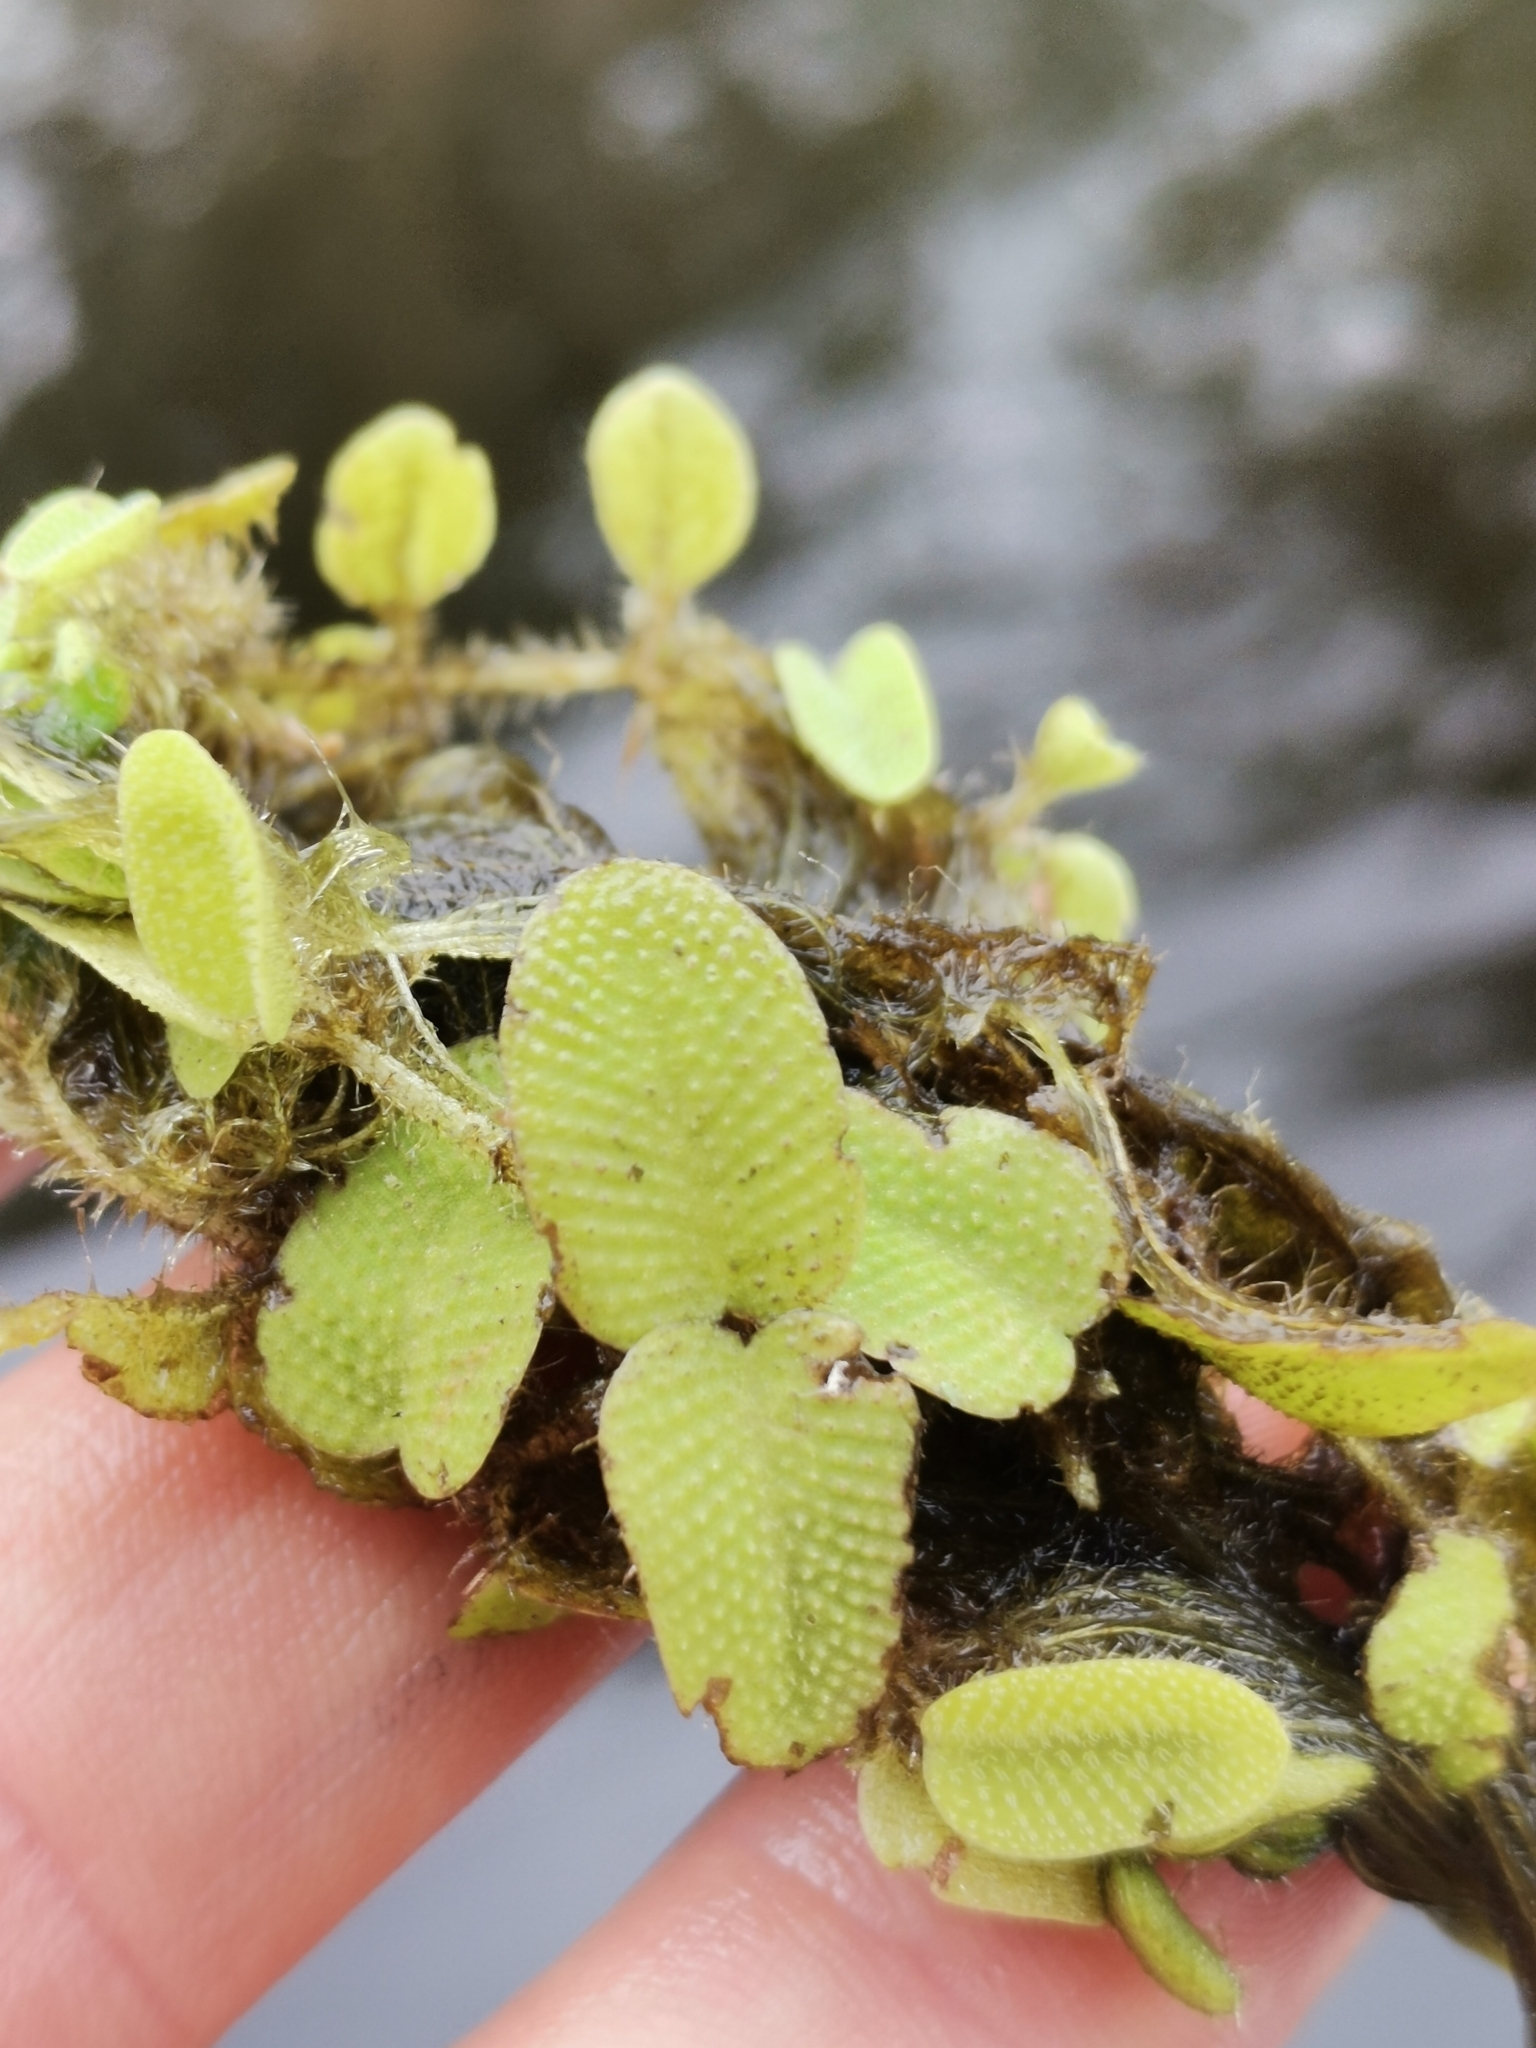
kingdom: Plantae
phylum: Tracheophyta
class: Polypodiopsida
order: Salviniales
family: Salviniaceae
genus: Salvinia
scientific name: Salvinia natans
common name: Floating fern
